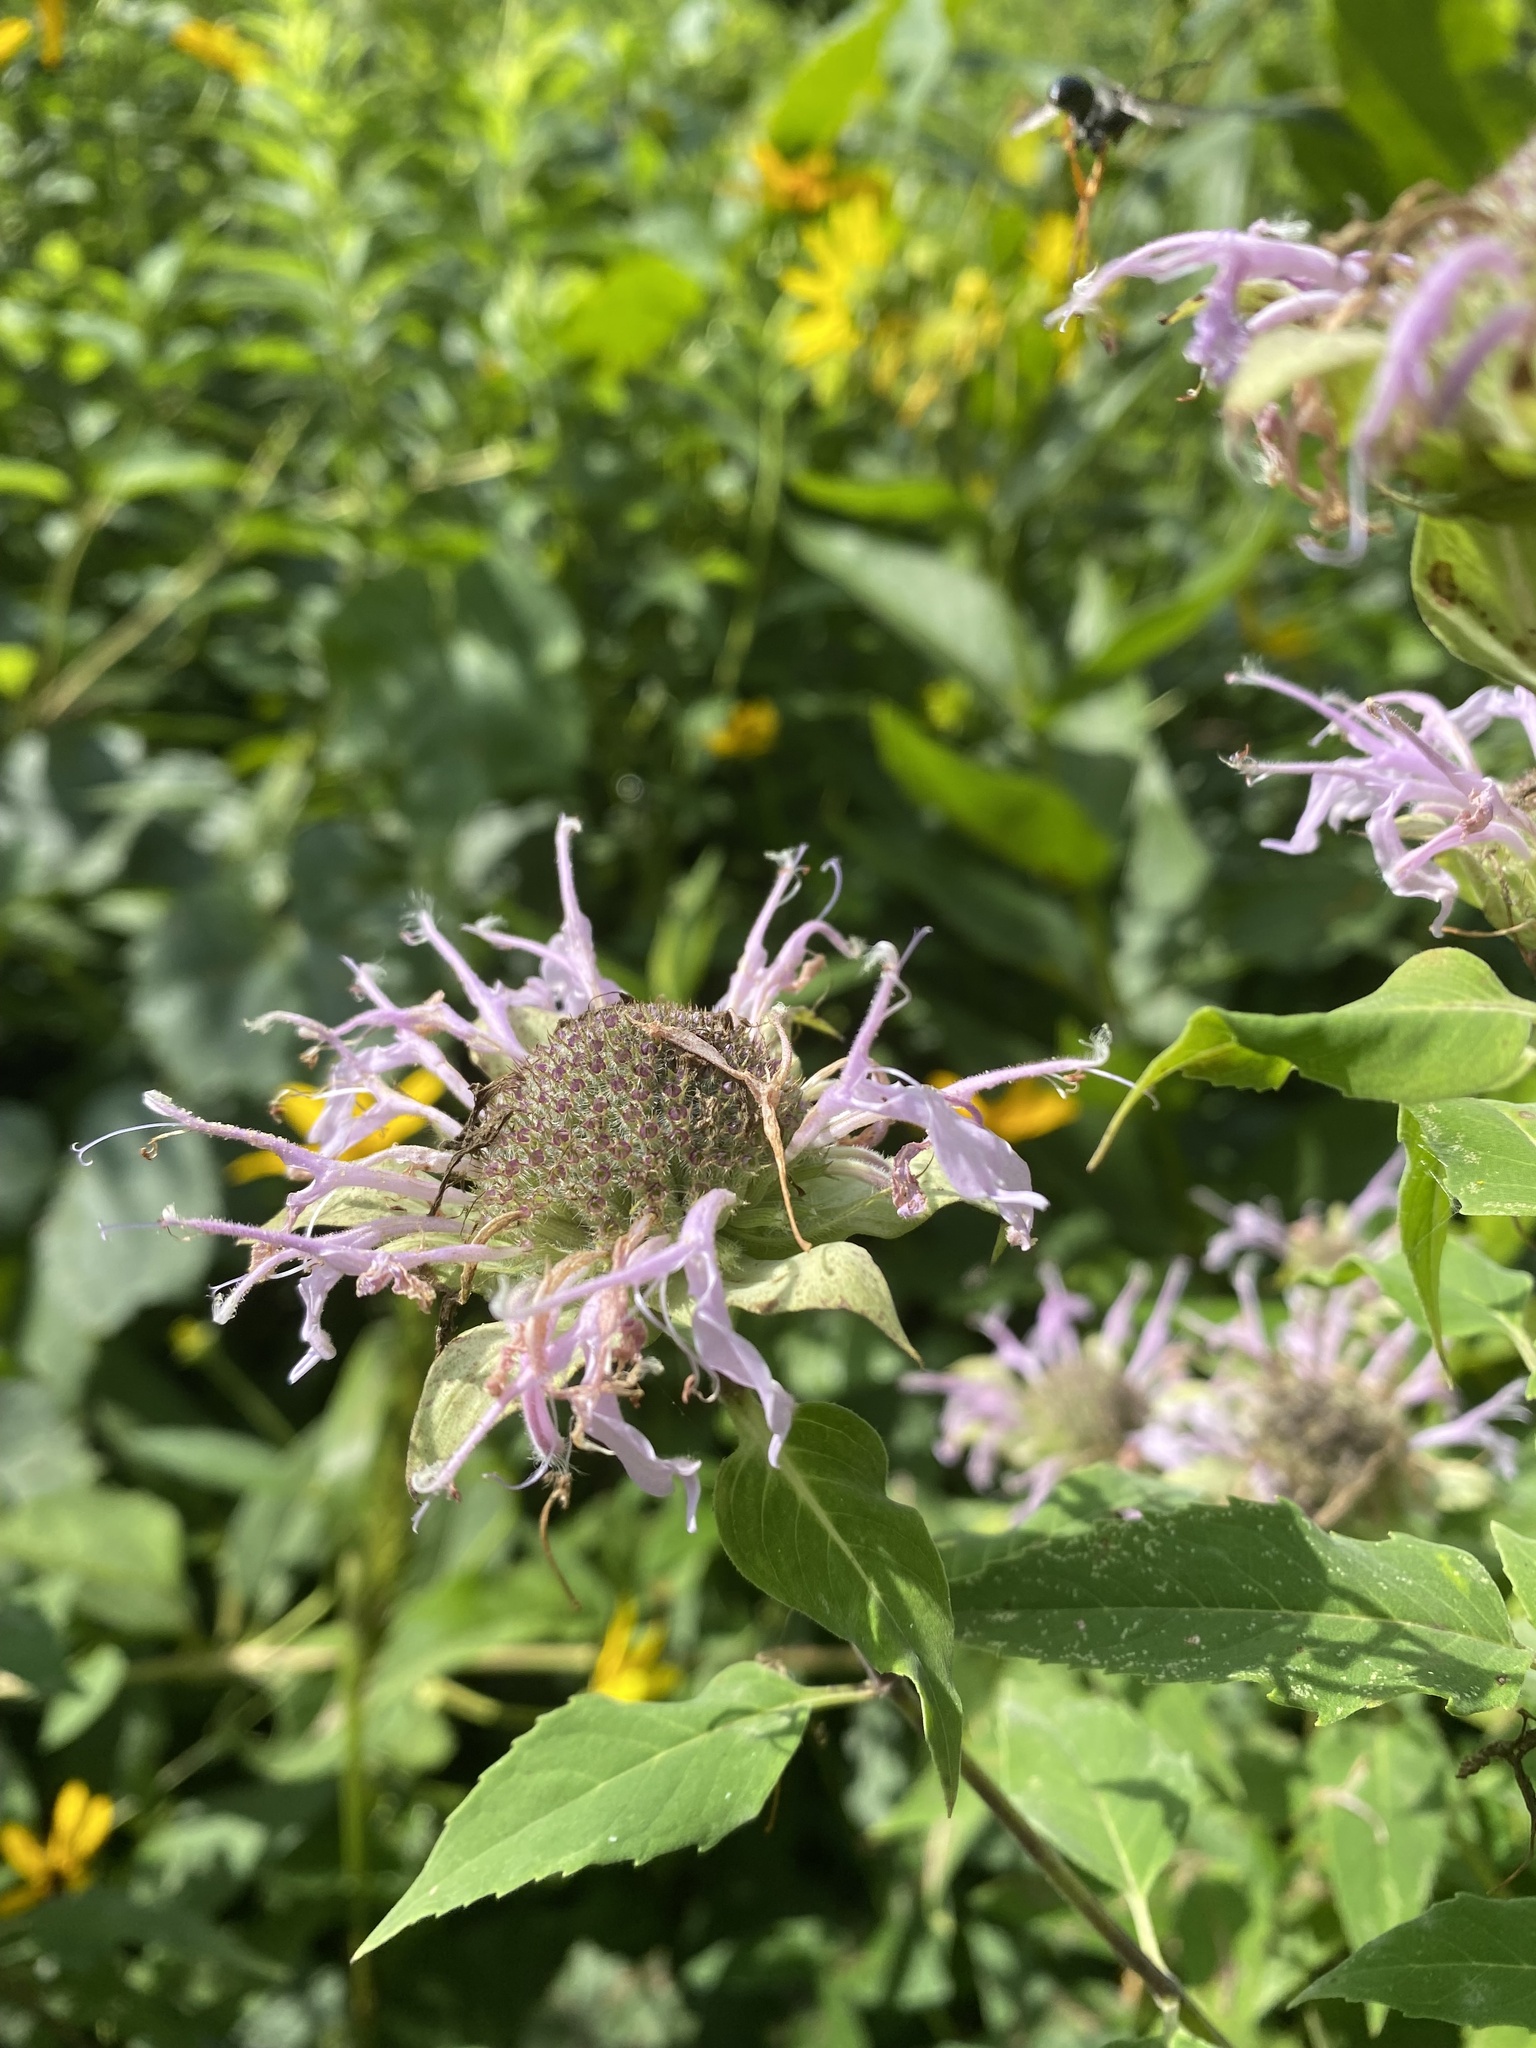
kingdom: Plantae
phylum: Tracheophyta
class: Magnoliopsida
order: Lamiales
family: Lamiaceae
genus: Monarda
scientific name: Monarda fistulosa
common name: Purple beebalm
